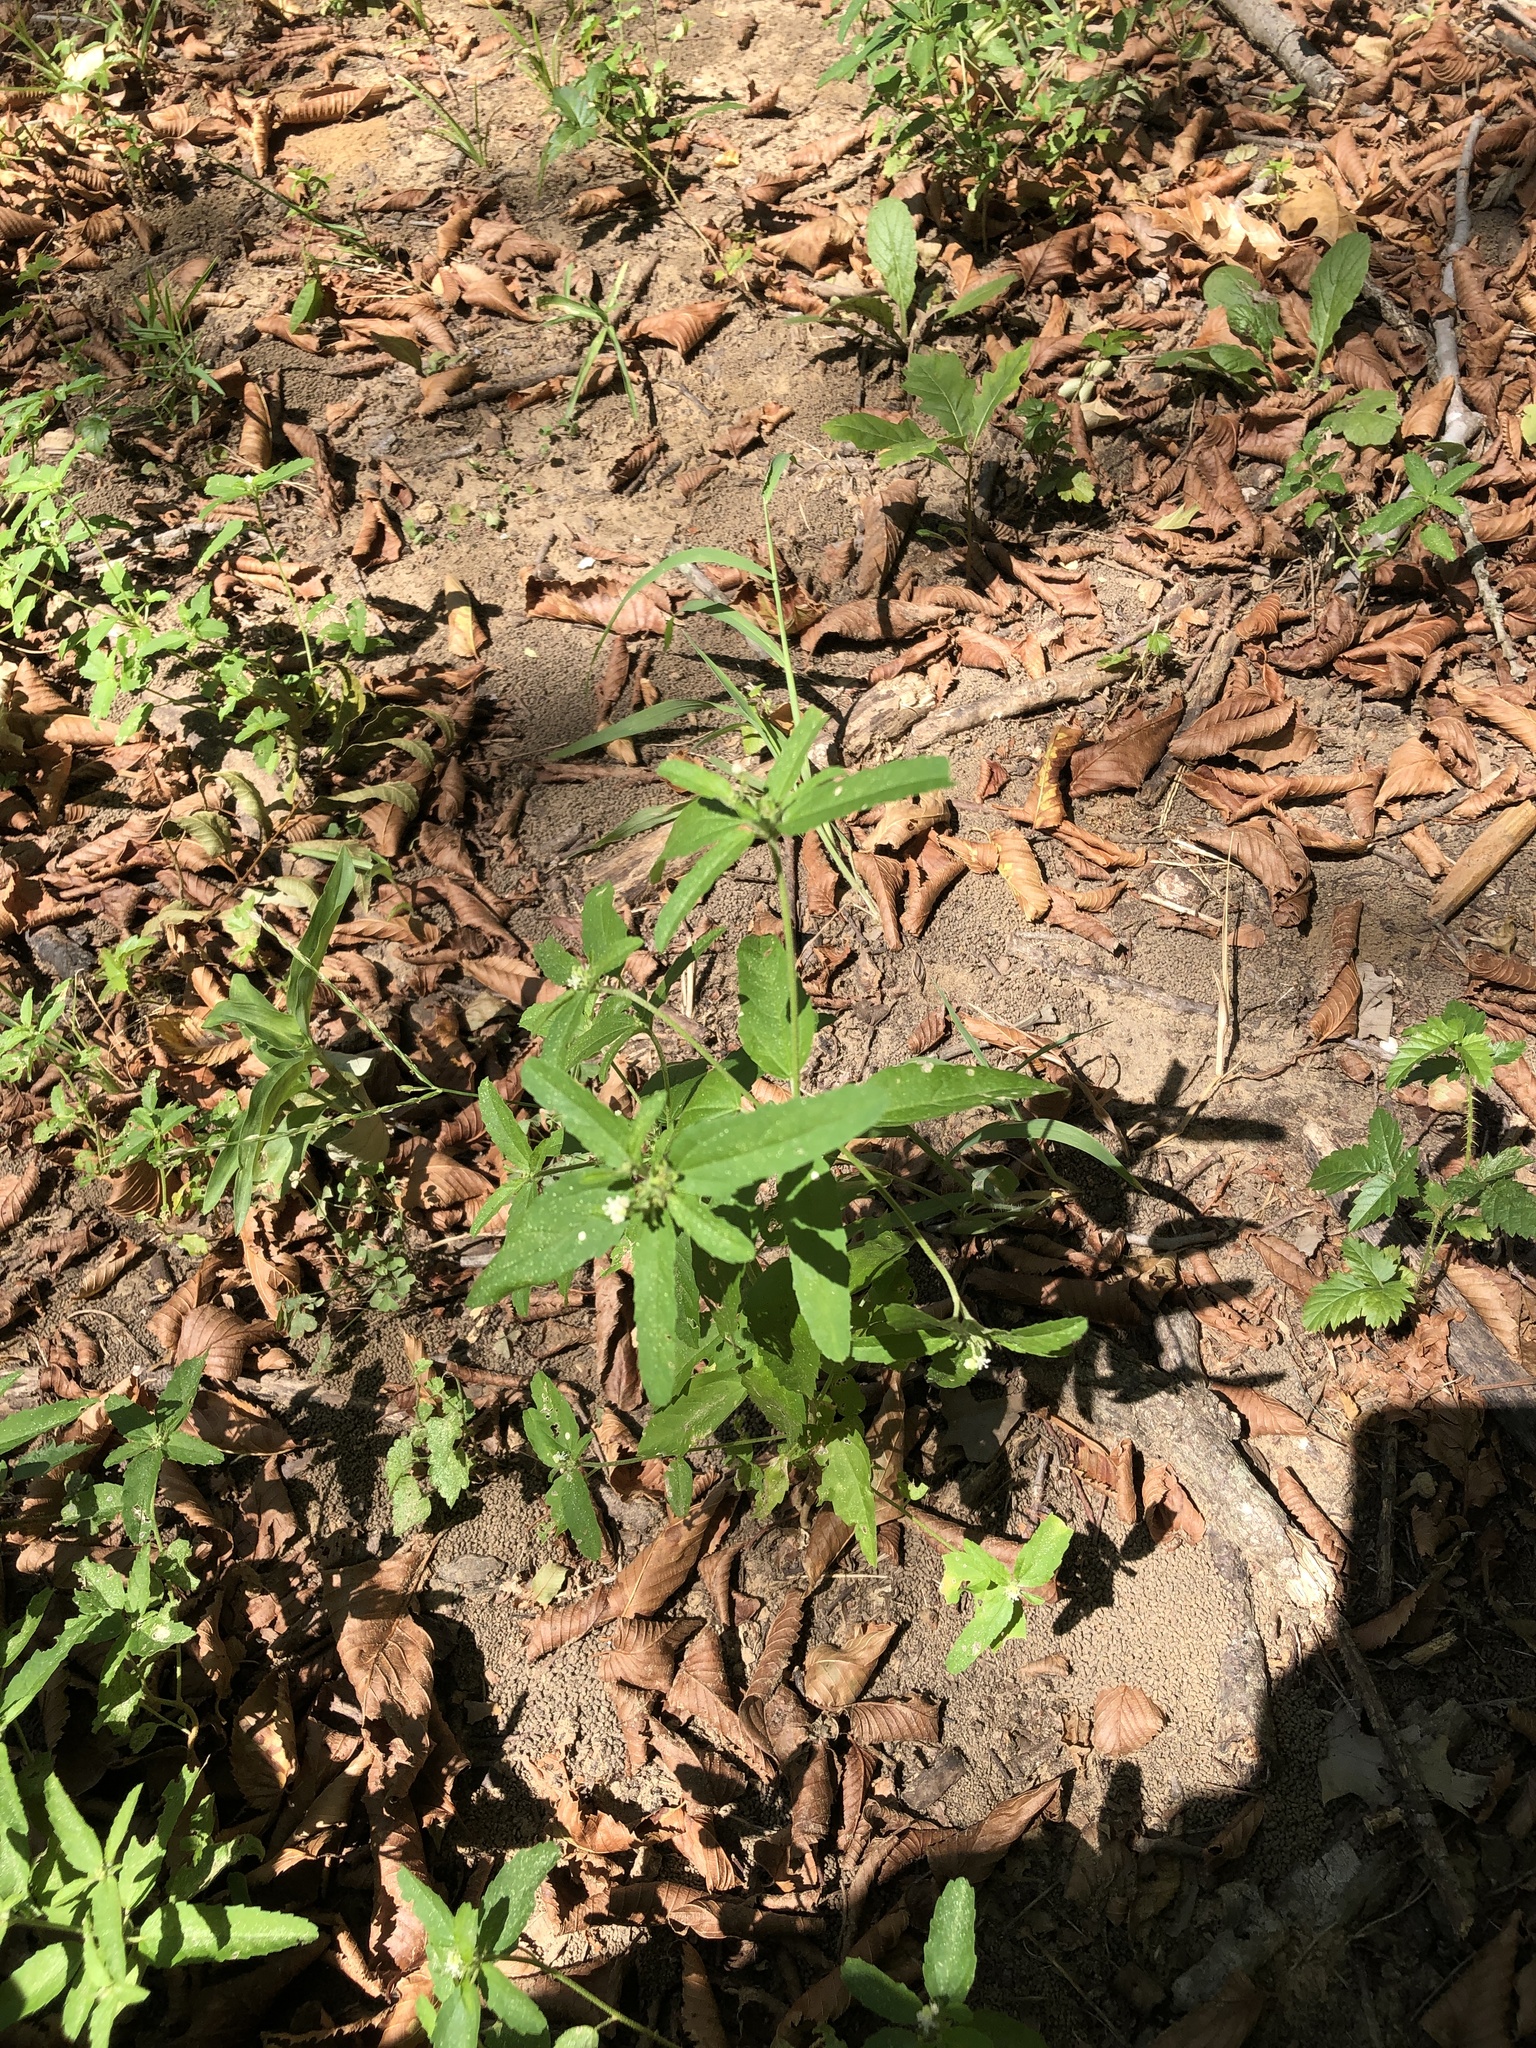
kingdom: Plantae
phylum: Tracheophyta
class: Magnoliopsida
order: Malpighiales
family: Euphorbiaceae
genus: Croton
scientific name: Croton glandulosus
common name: Tropic croton
